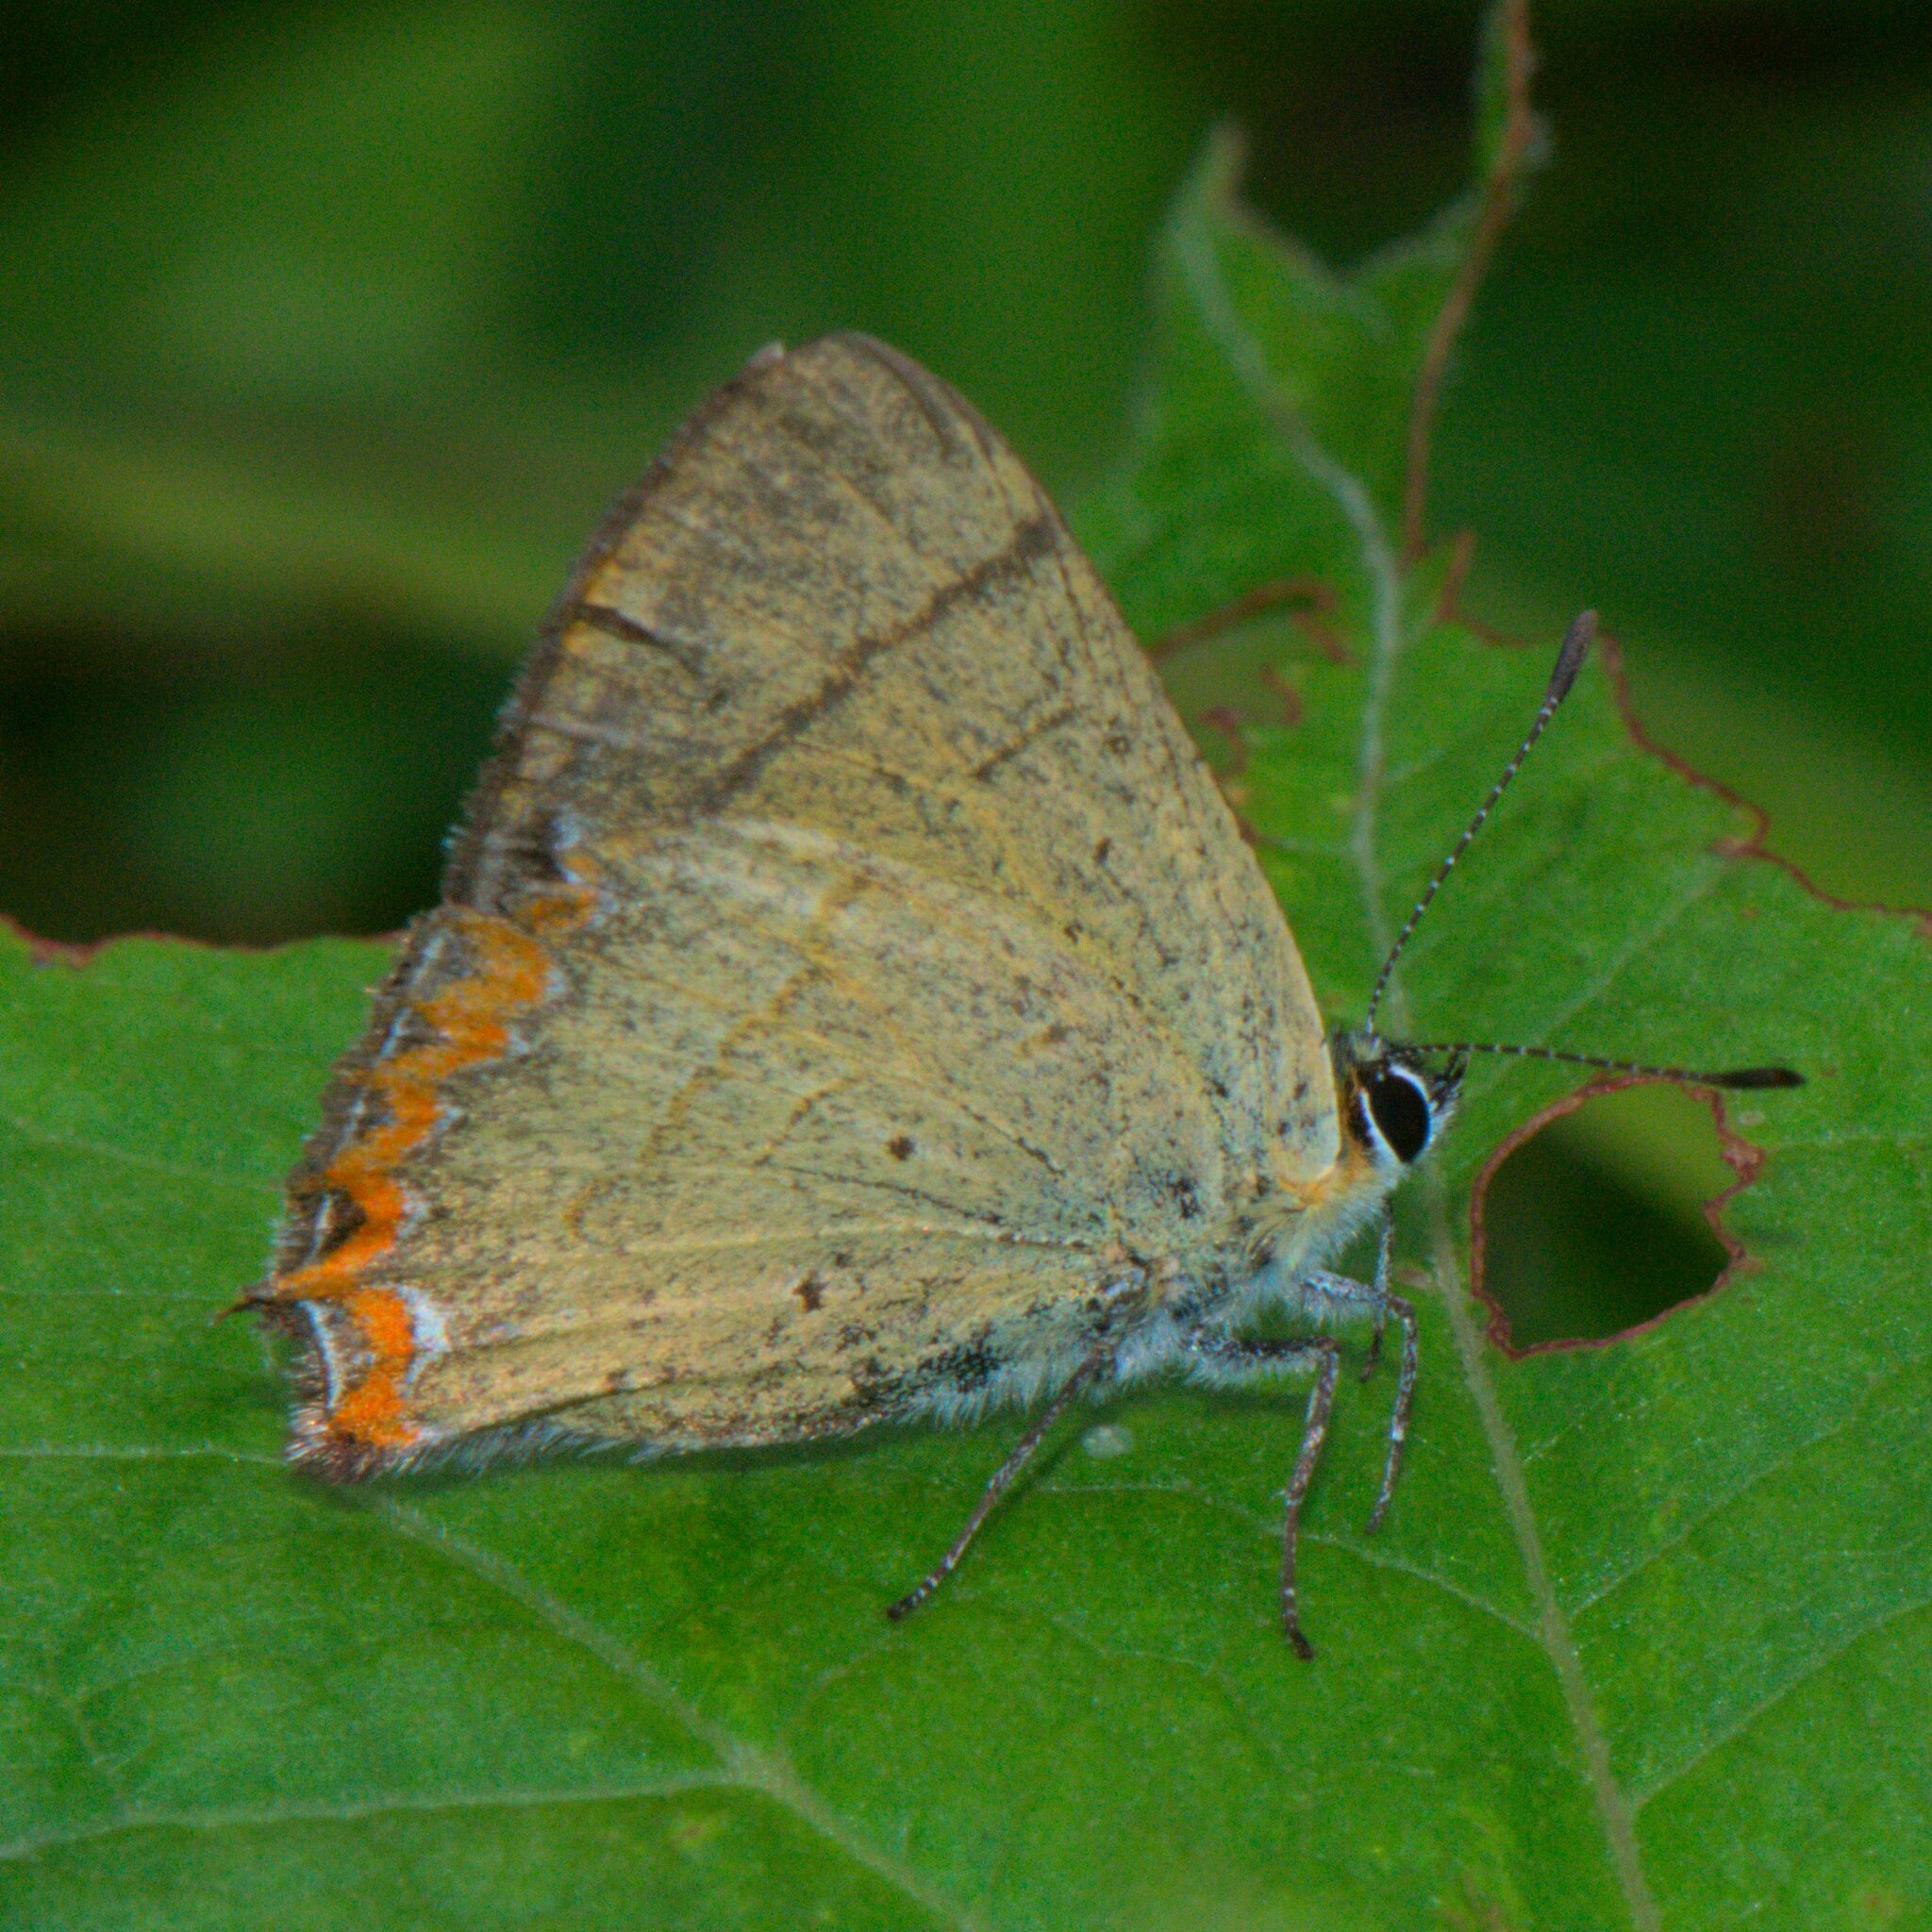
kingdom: Animalia
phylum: Arthropoda
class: Insecta
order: Lepidoptera
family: Lycaenidae
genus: Heliophorus
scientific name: Heliophorus
